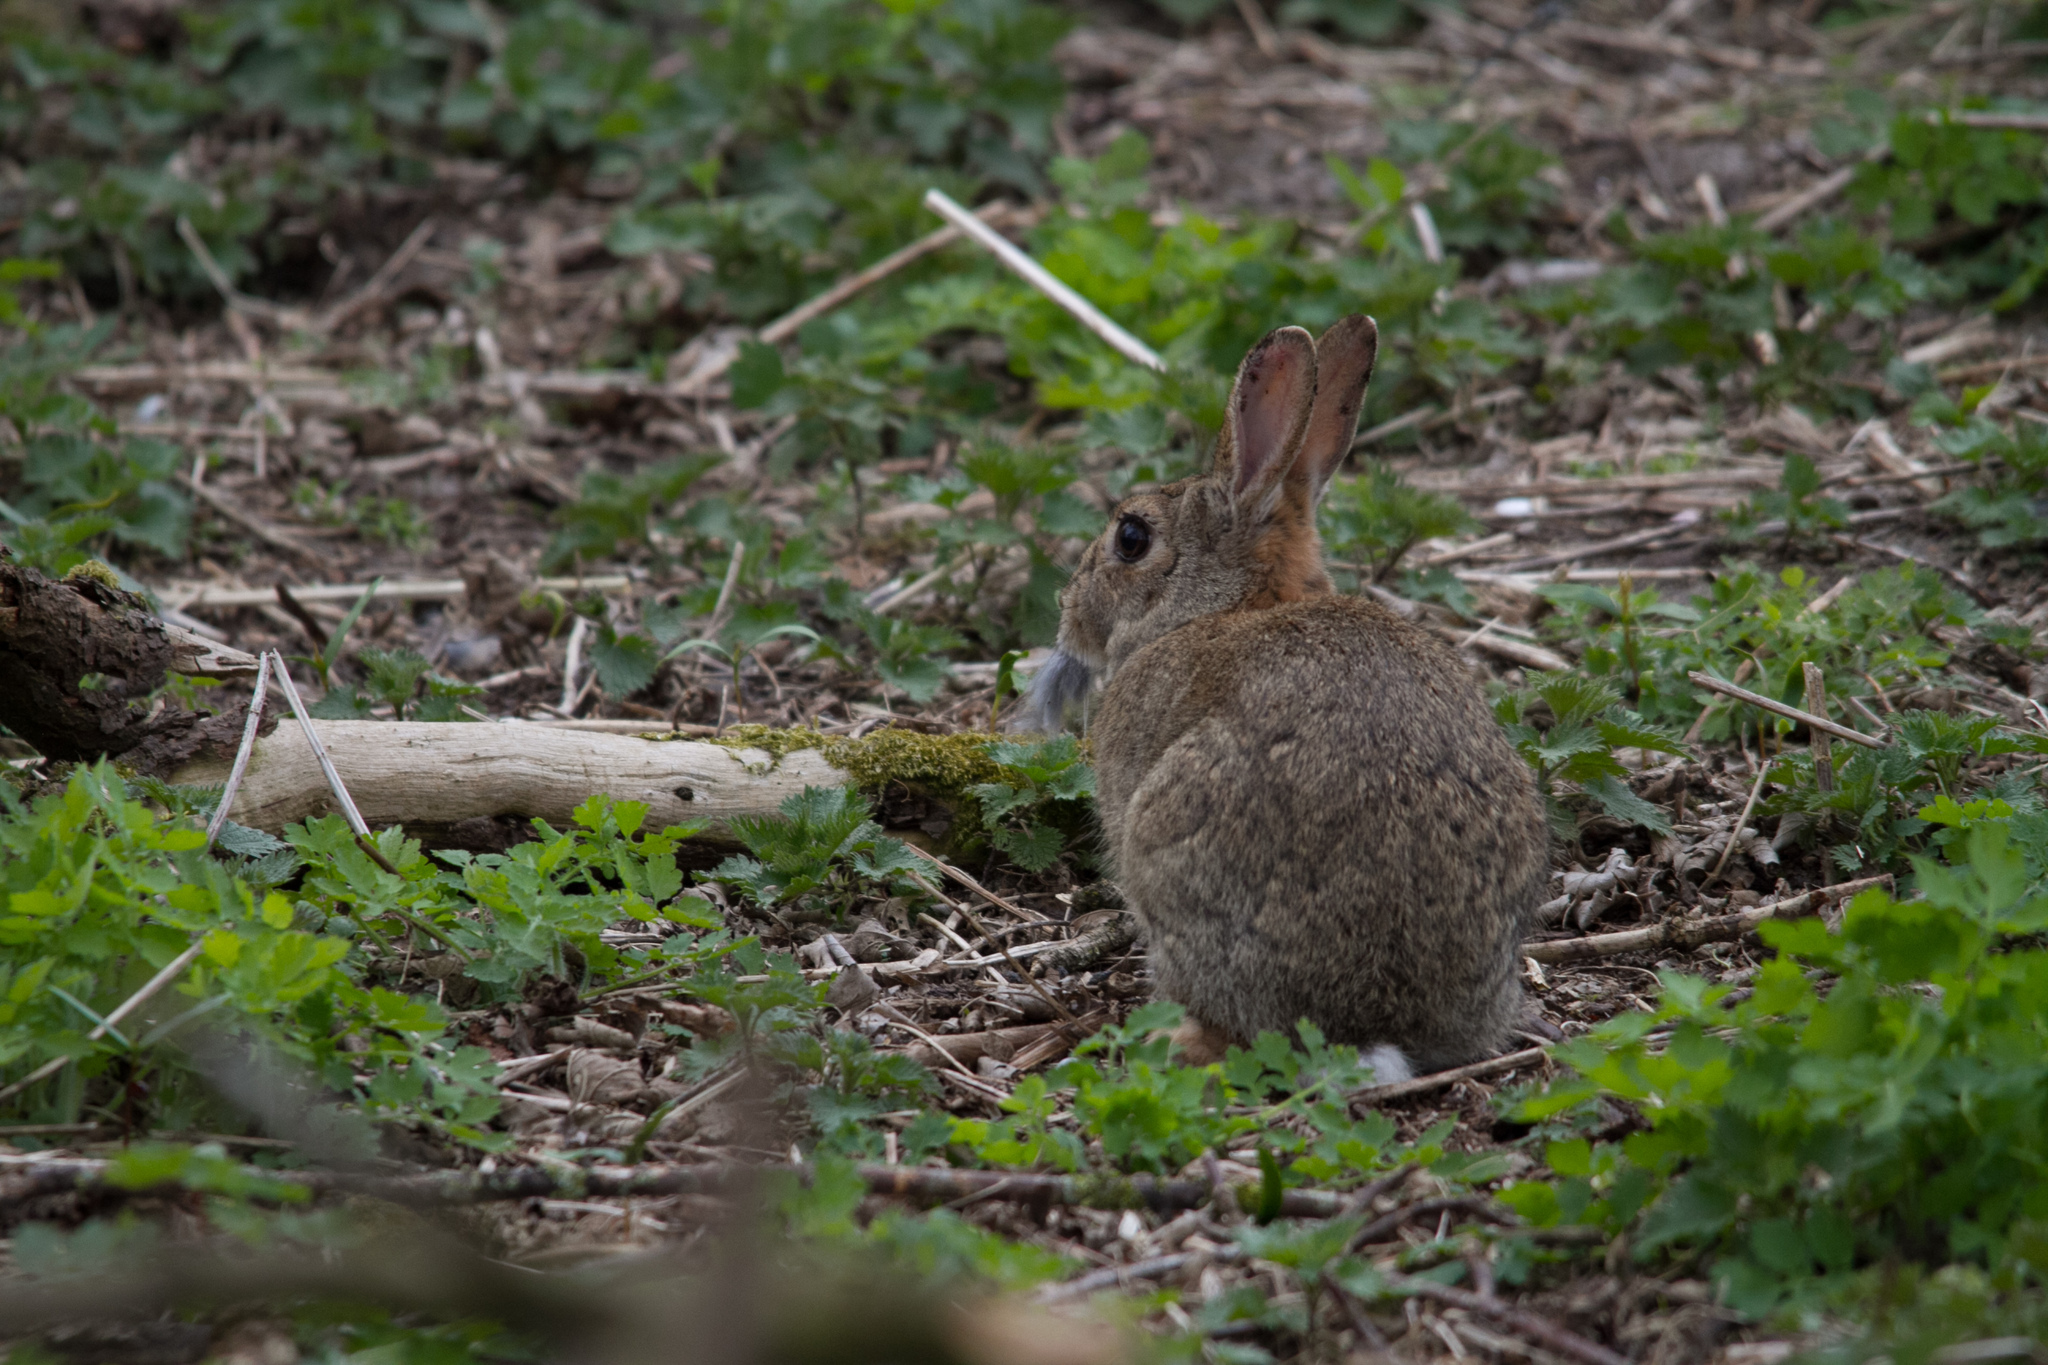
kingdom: Animalia
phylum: Chordata
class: Mammalia
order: Lagomorpha
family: Leporidae
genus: Oryctolagus
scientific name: Oryctolagus cuniculus
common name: European rabbit
